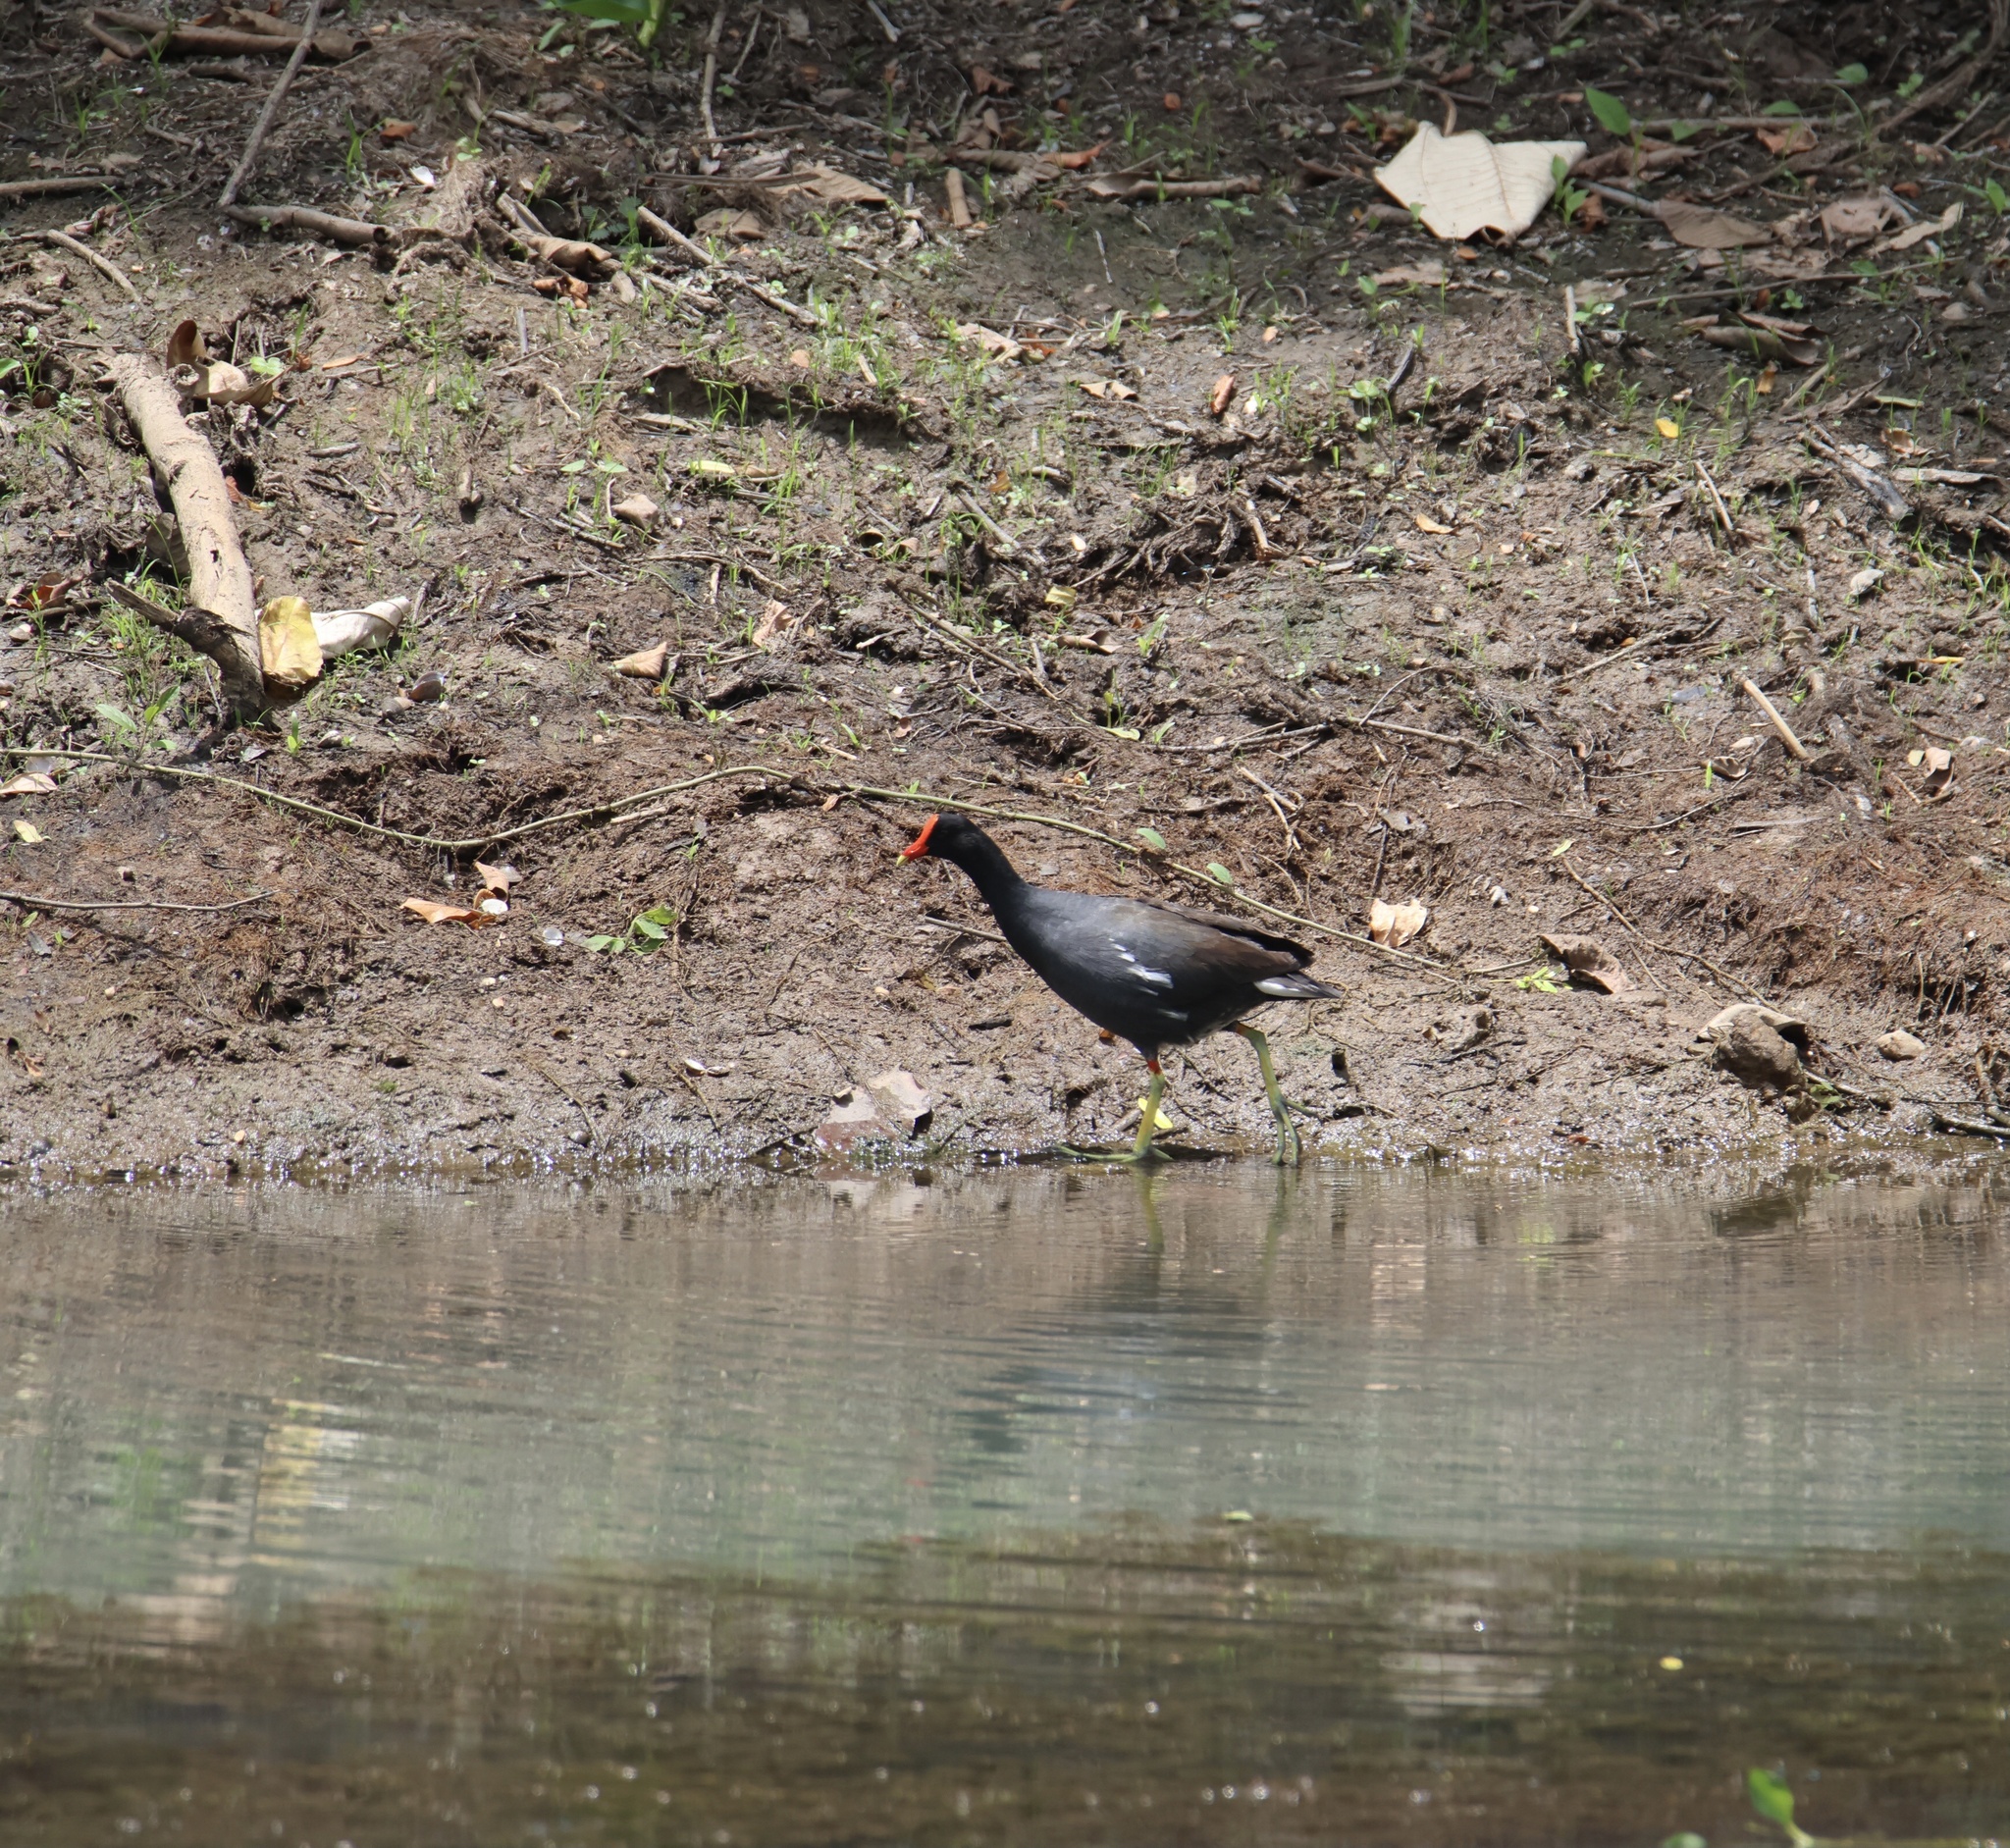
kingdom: Animalia
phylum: Chordata
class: Aves
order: Gruiformes
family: Rallidae
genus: Gallinula
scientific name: Gallinula chloropus
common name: Common moorhen
